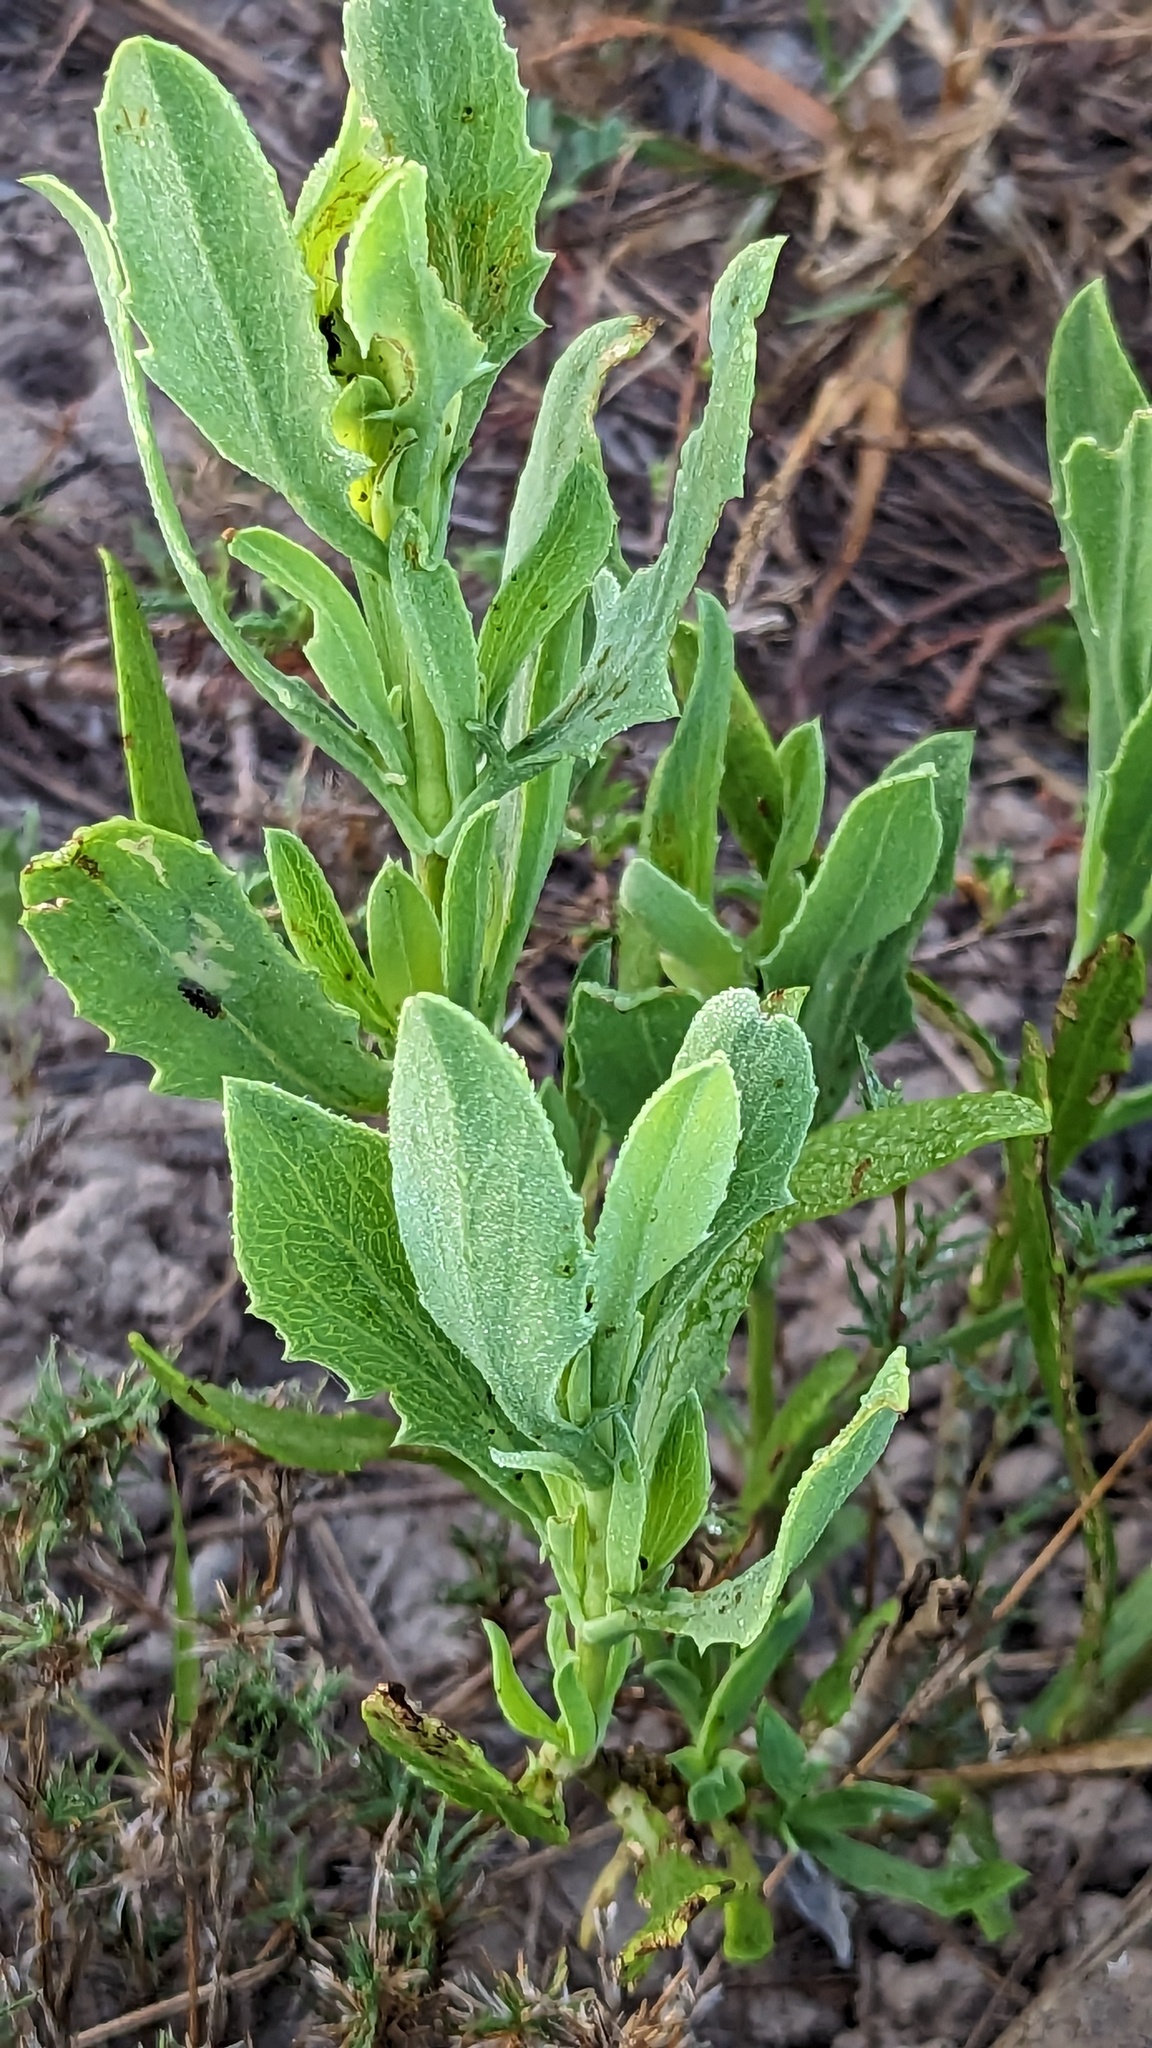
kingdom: Plantae
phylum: Tracheophyta
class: Magnoliopsida
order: Asterales
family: Asteraceae
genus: Borrichia
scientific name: Borrichia frutescens
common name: Sea oxeye
